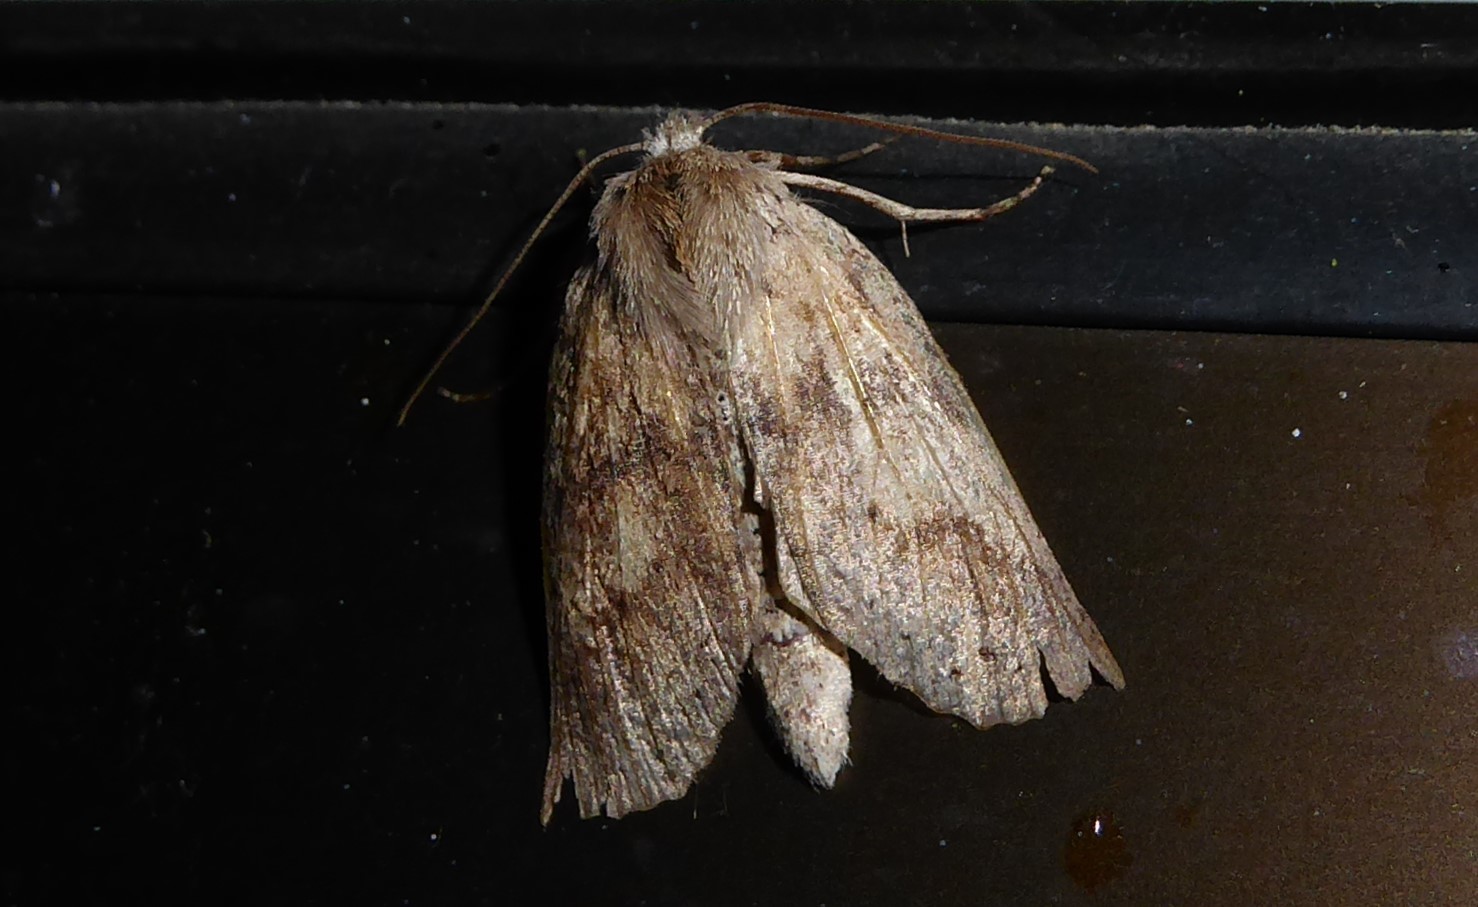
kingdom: Animalia
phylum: Arthropoda
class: Insecta
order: Lepidoptera
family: Geometridae
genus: Declana
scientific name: Declana leptomera
